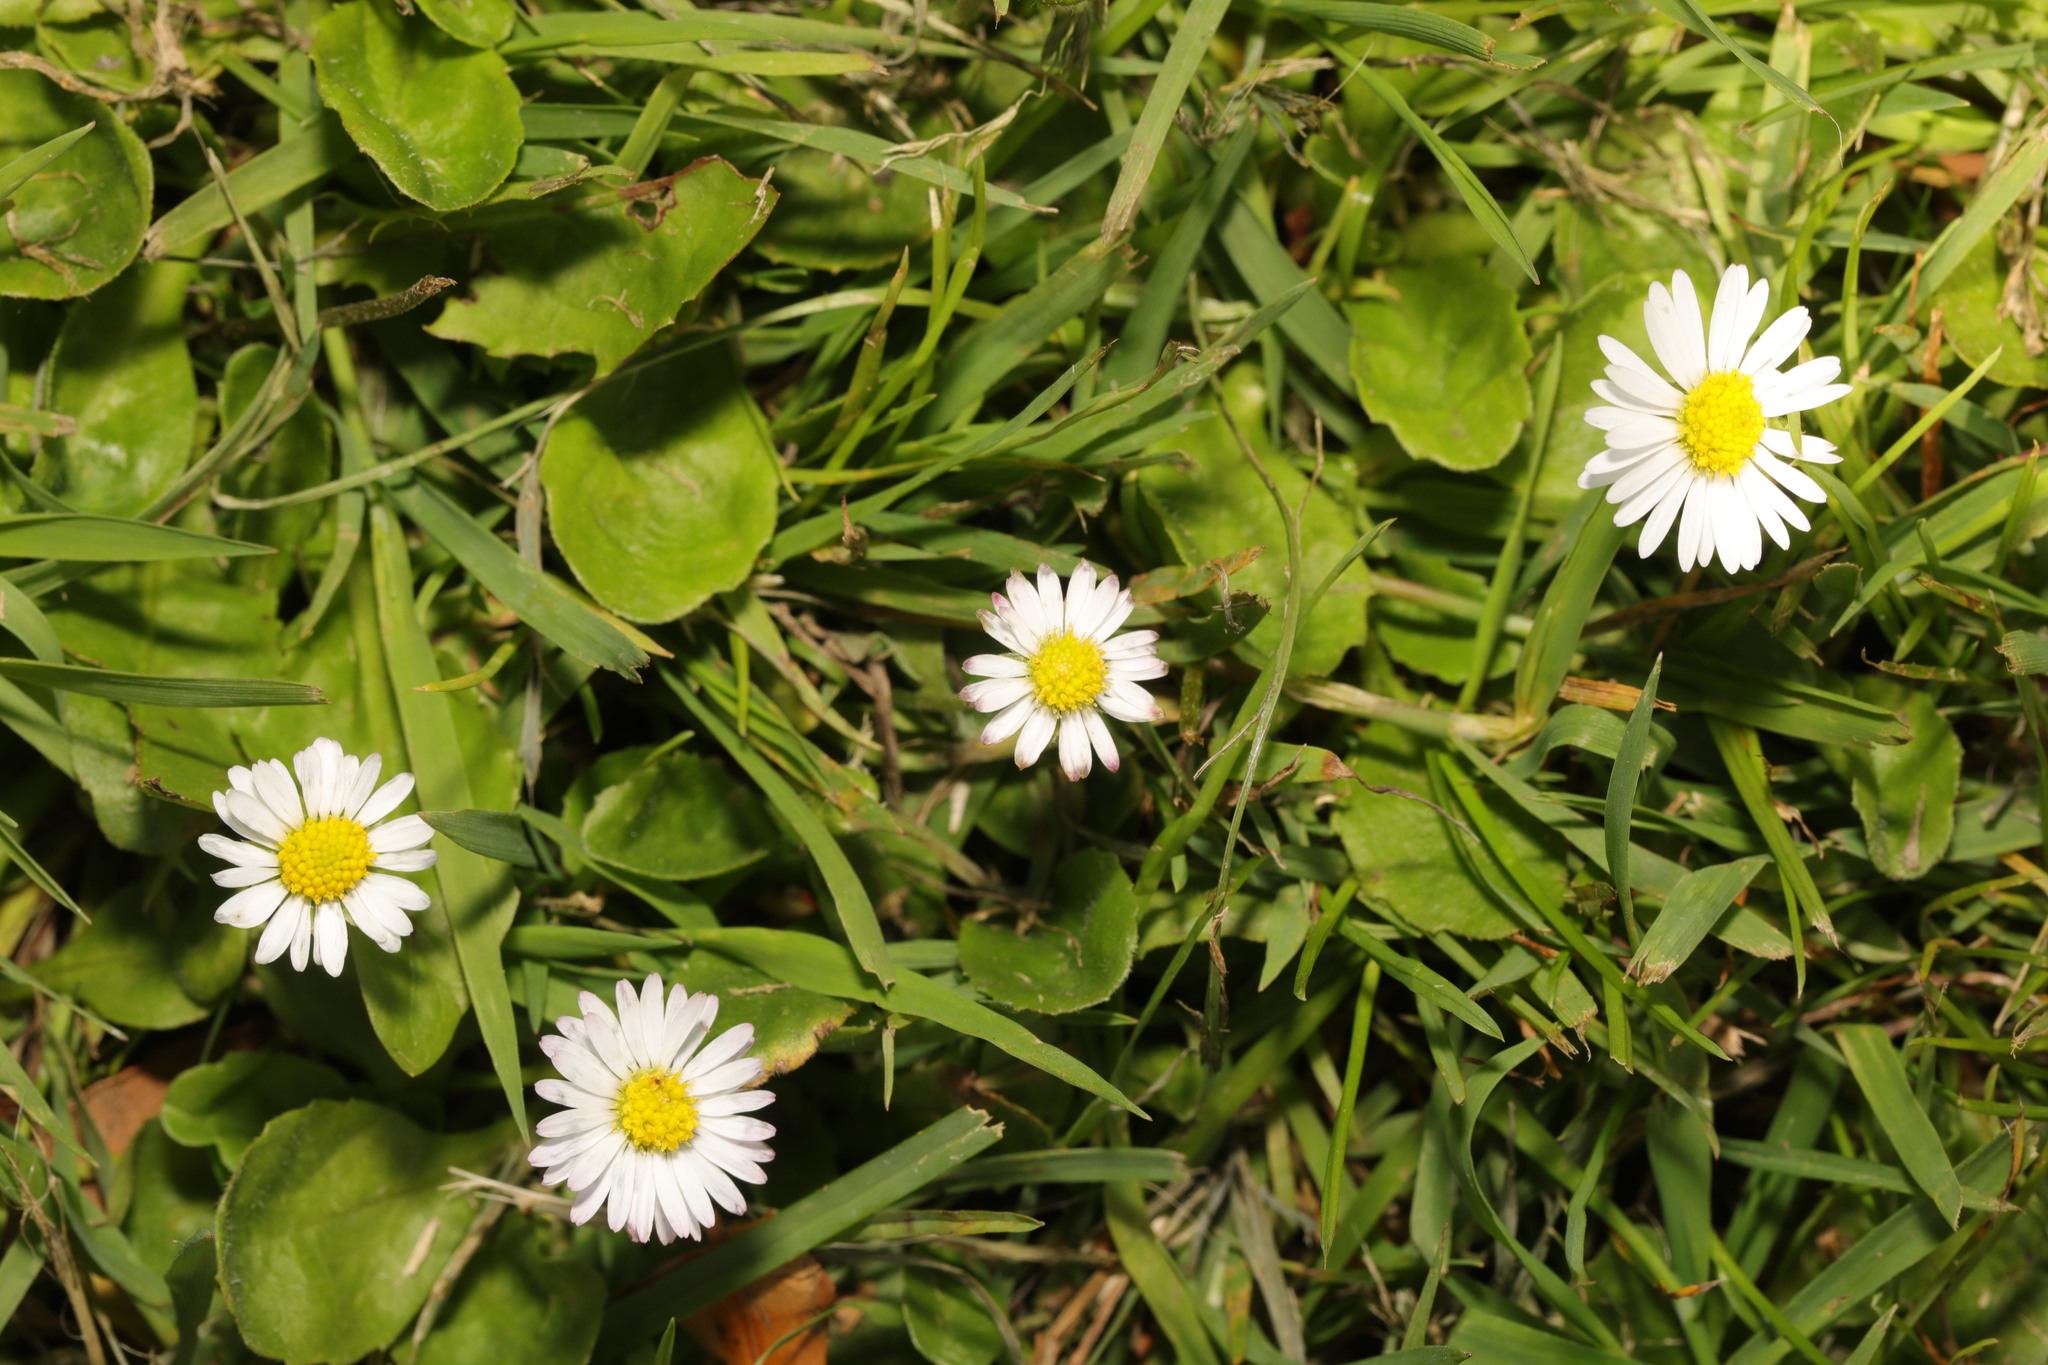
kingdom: Plantae
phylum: Tracheophyta
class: Magnoliopsida
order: Asterales
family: Asteraceae
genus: Bellis
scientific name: Bellis perennis
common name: Lawndaisy
